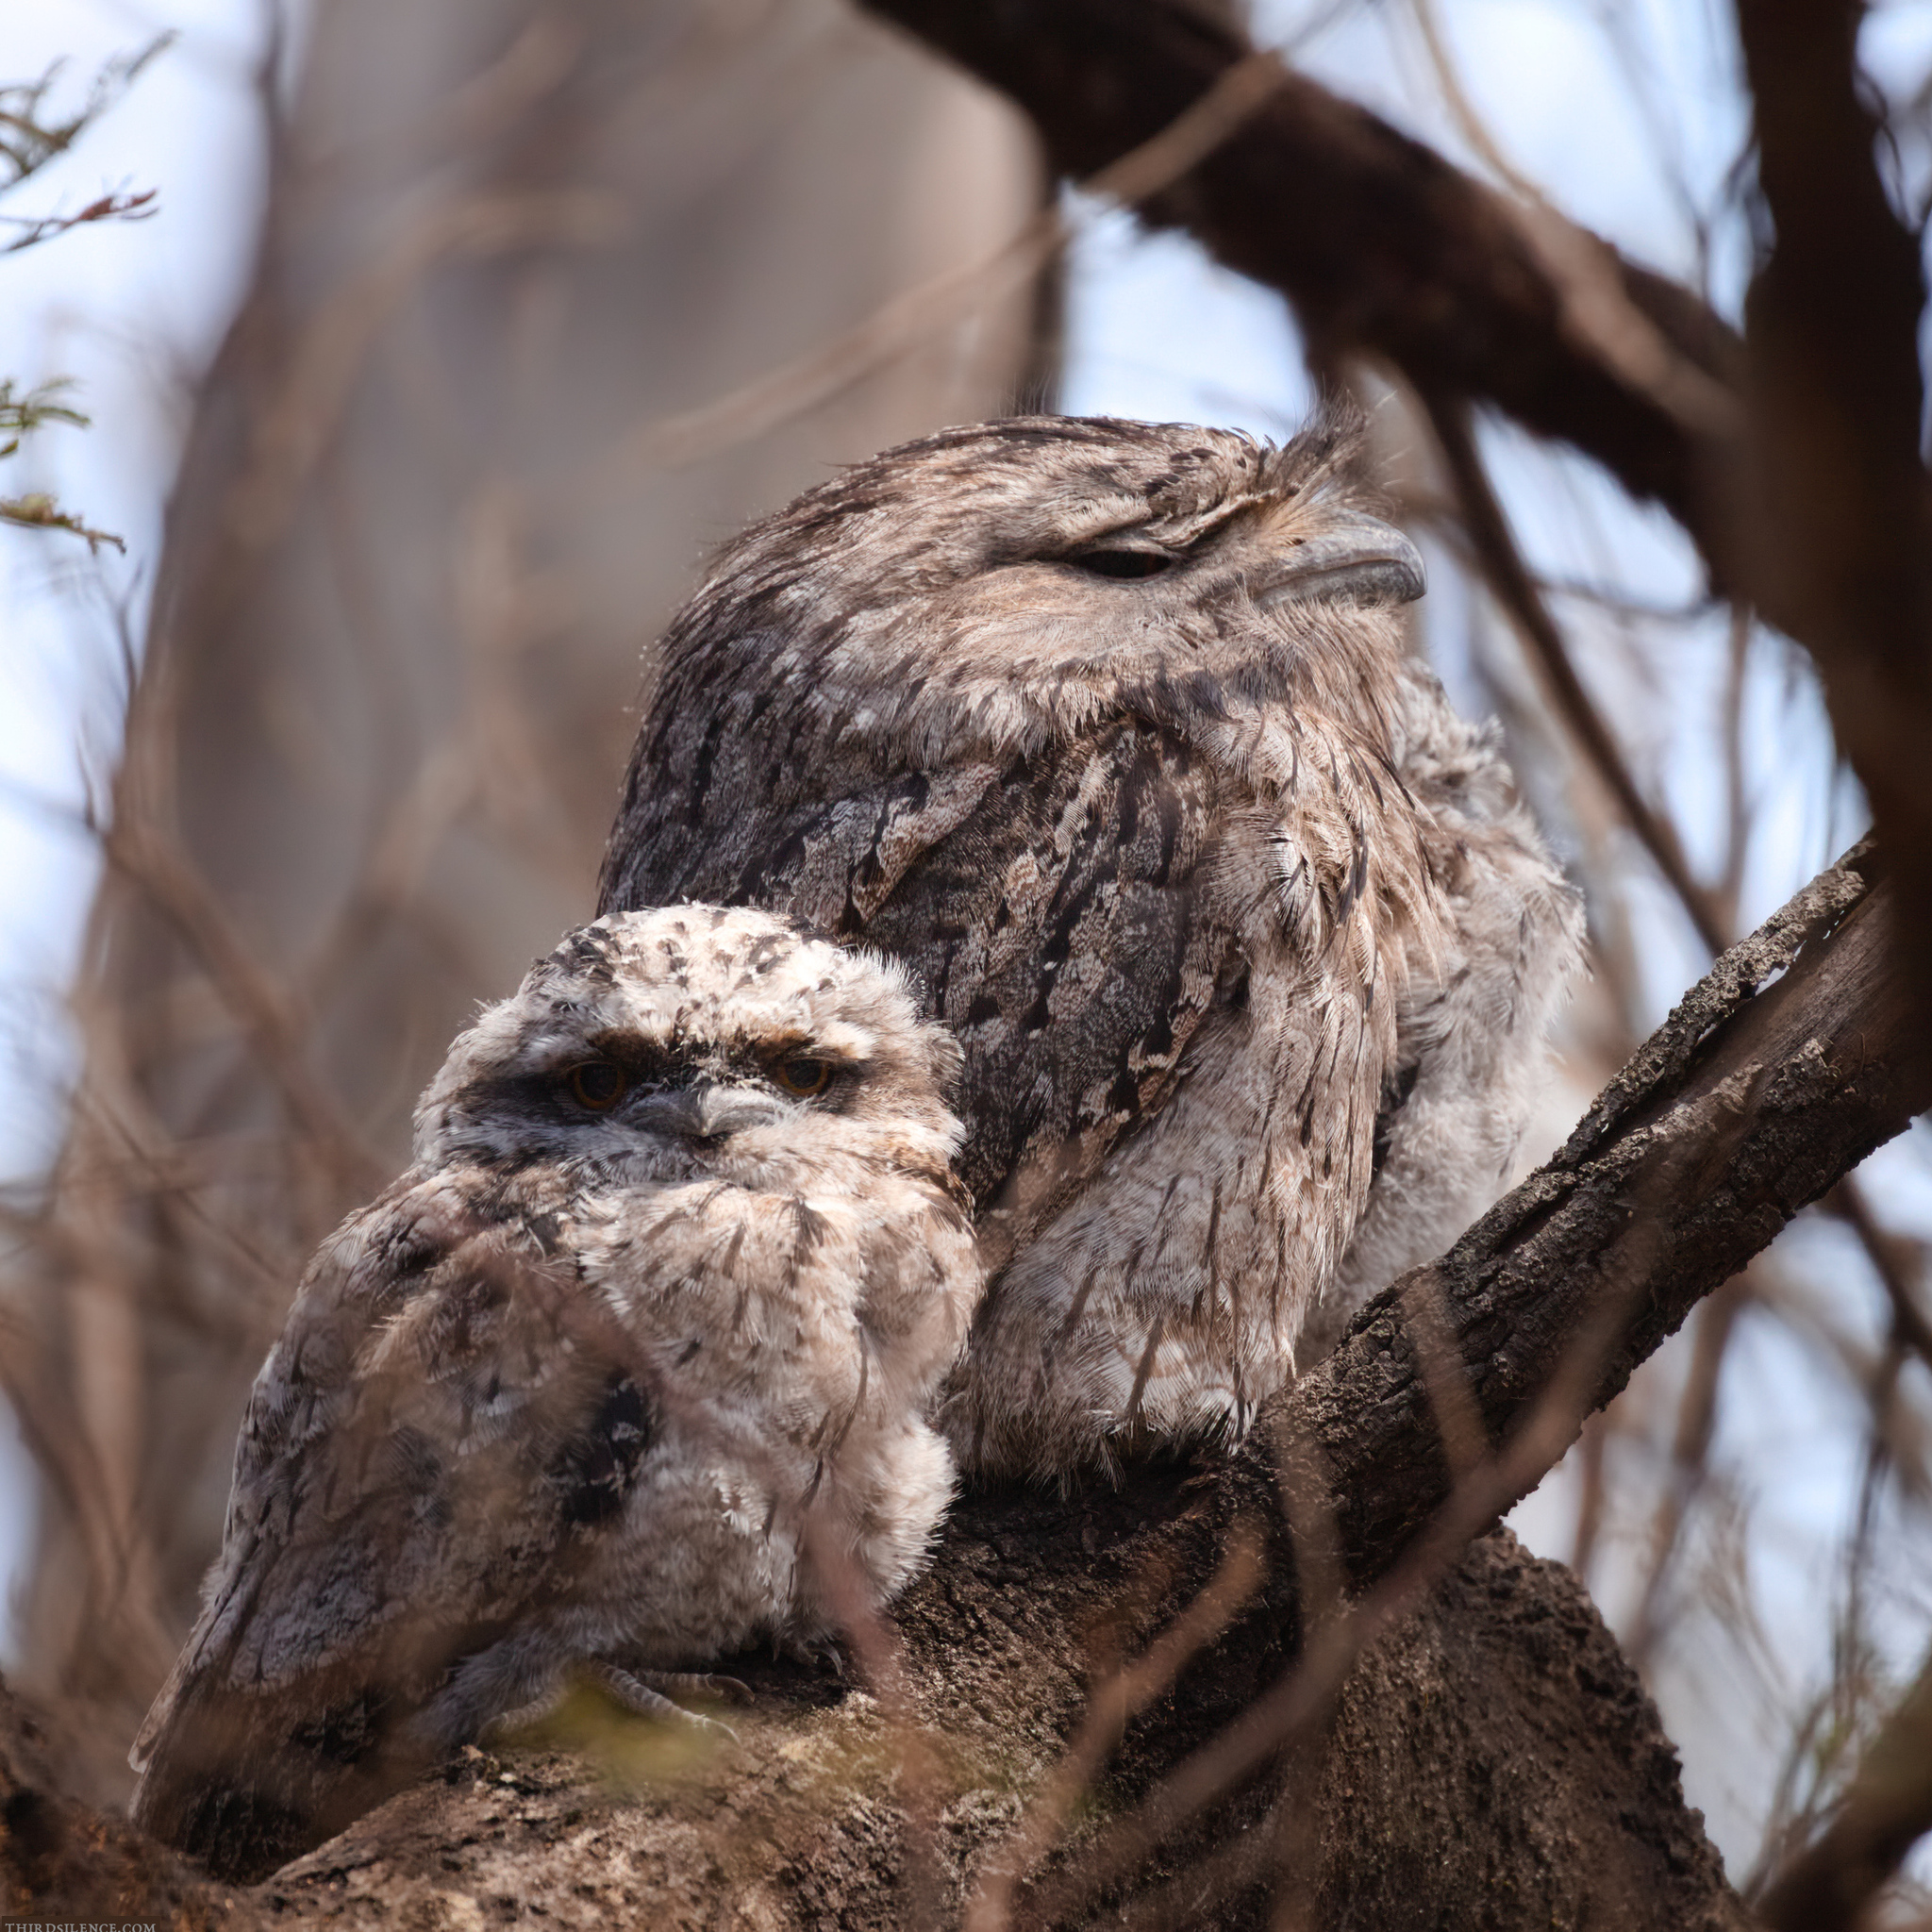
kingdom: Animalia
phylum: Chordata
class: Aves
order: Caprimulgiformes
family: Podargidae
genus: Podargus
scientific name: Podargus strigoides
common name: Tawny frogmouth
